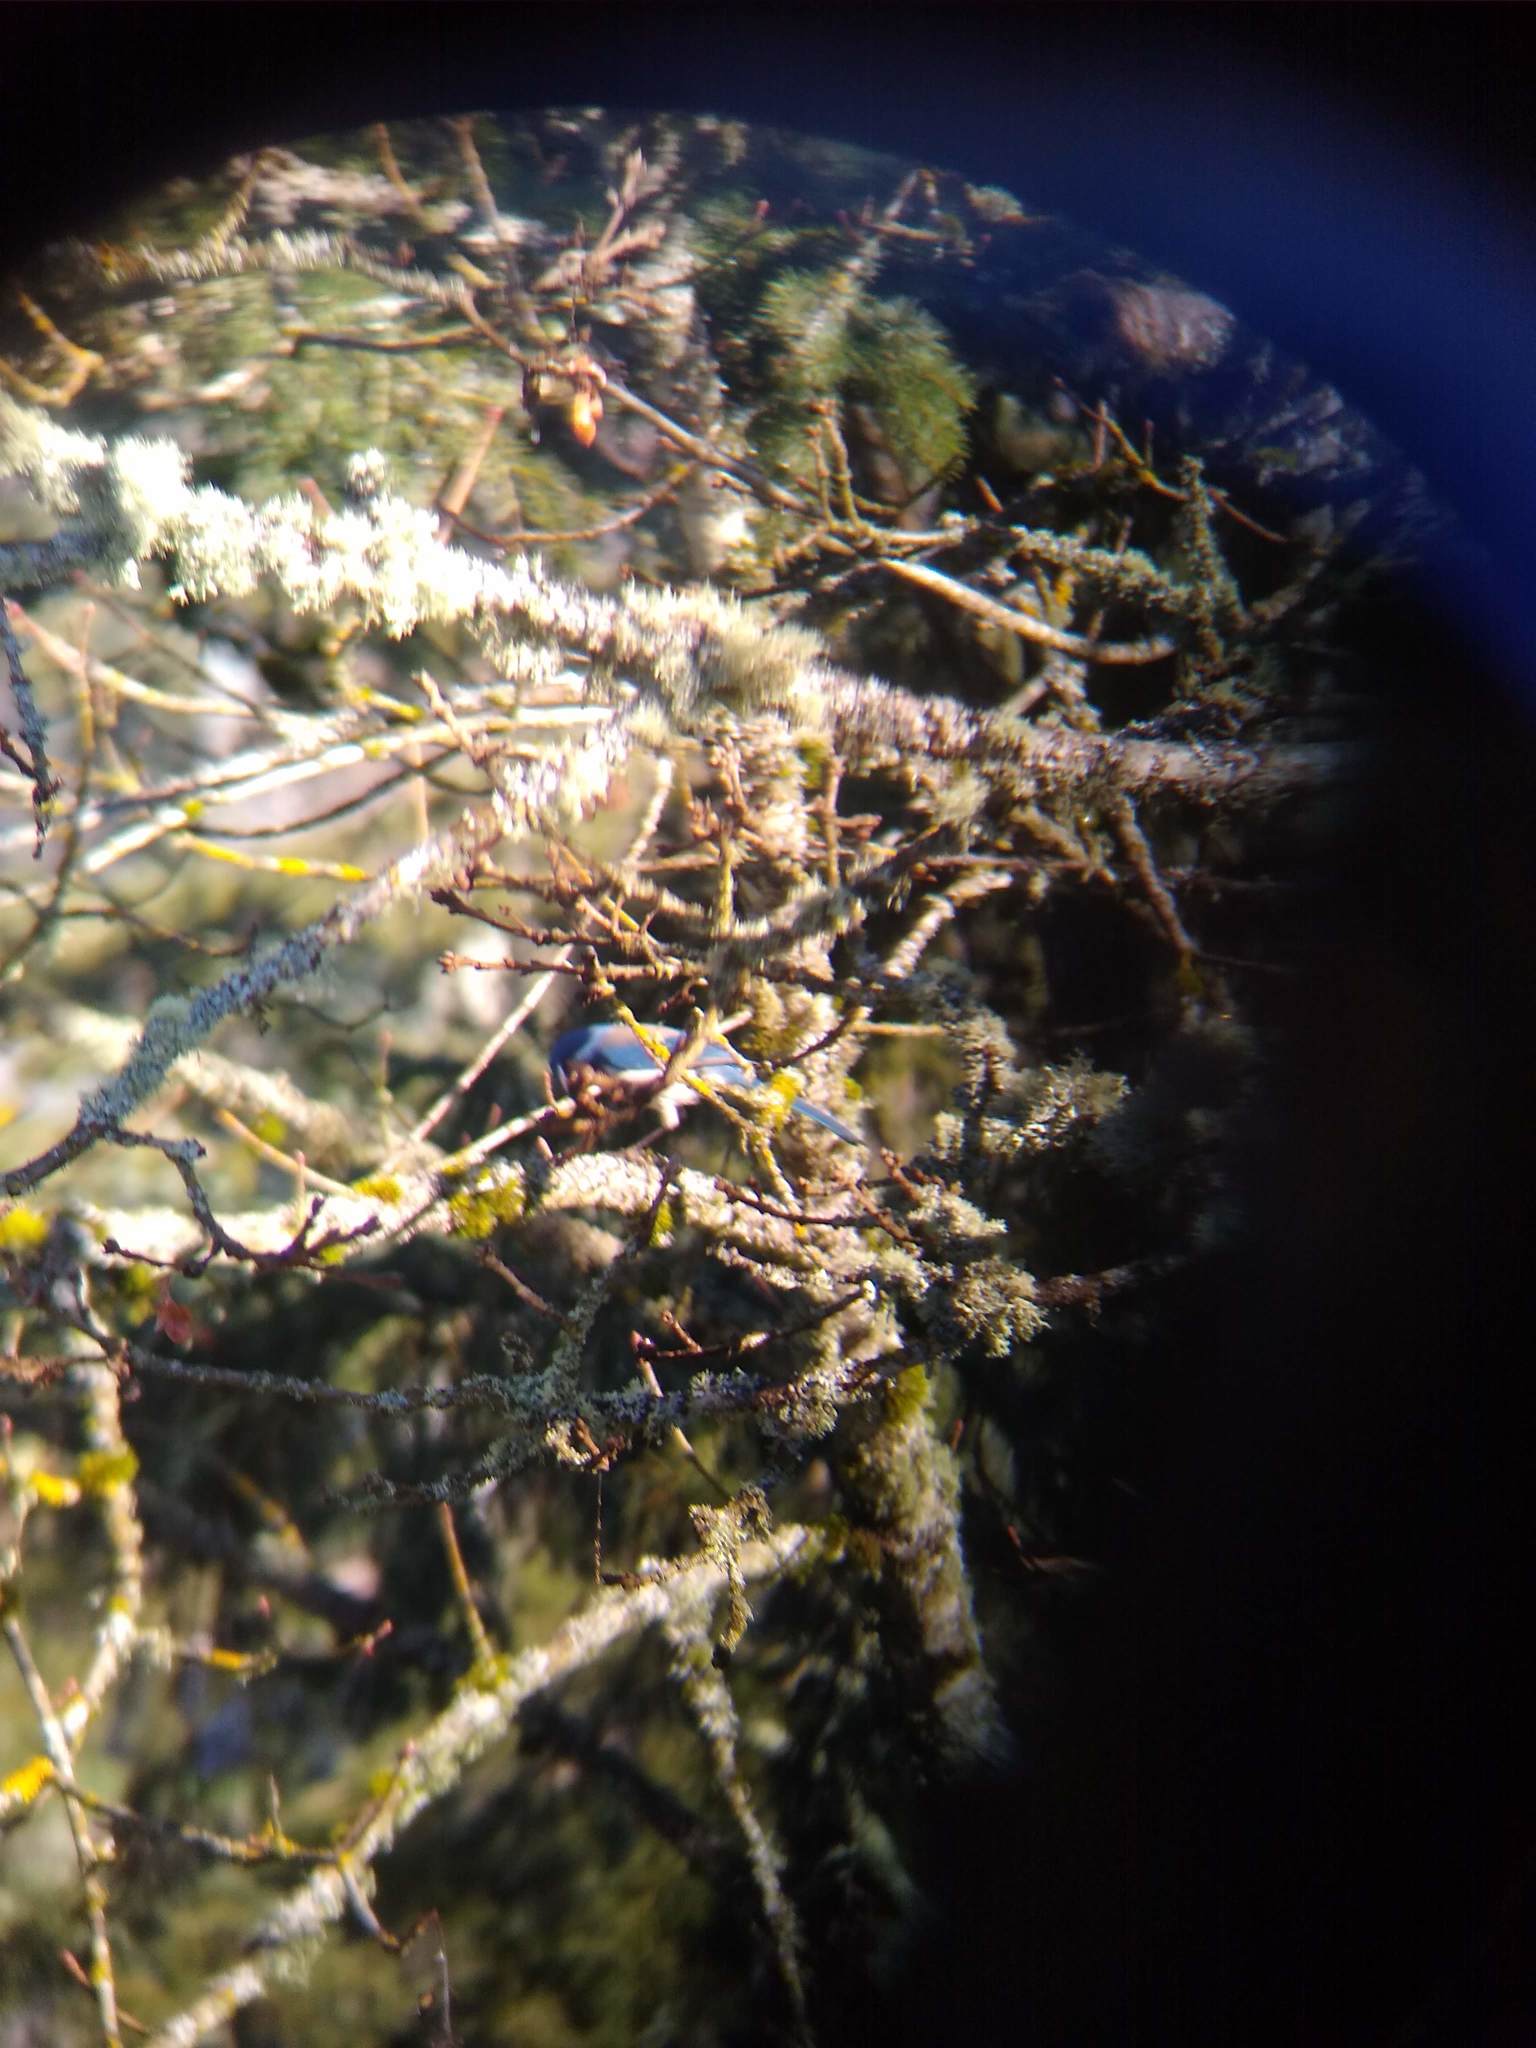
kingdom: Animalia
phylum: Chordata
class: Aves
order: Passeriformes
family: Corvidae
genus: Aphelocoma
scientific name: Aphelocoma californica
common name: California scrub-jay
